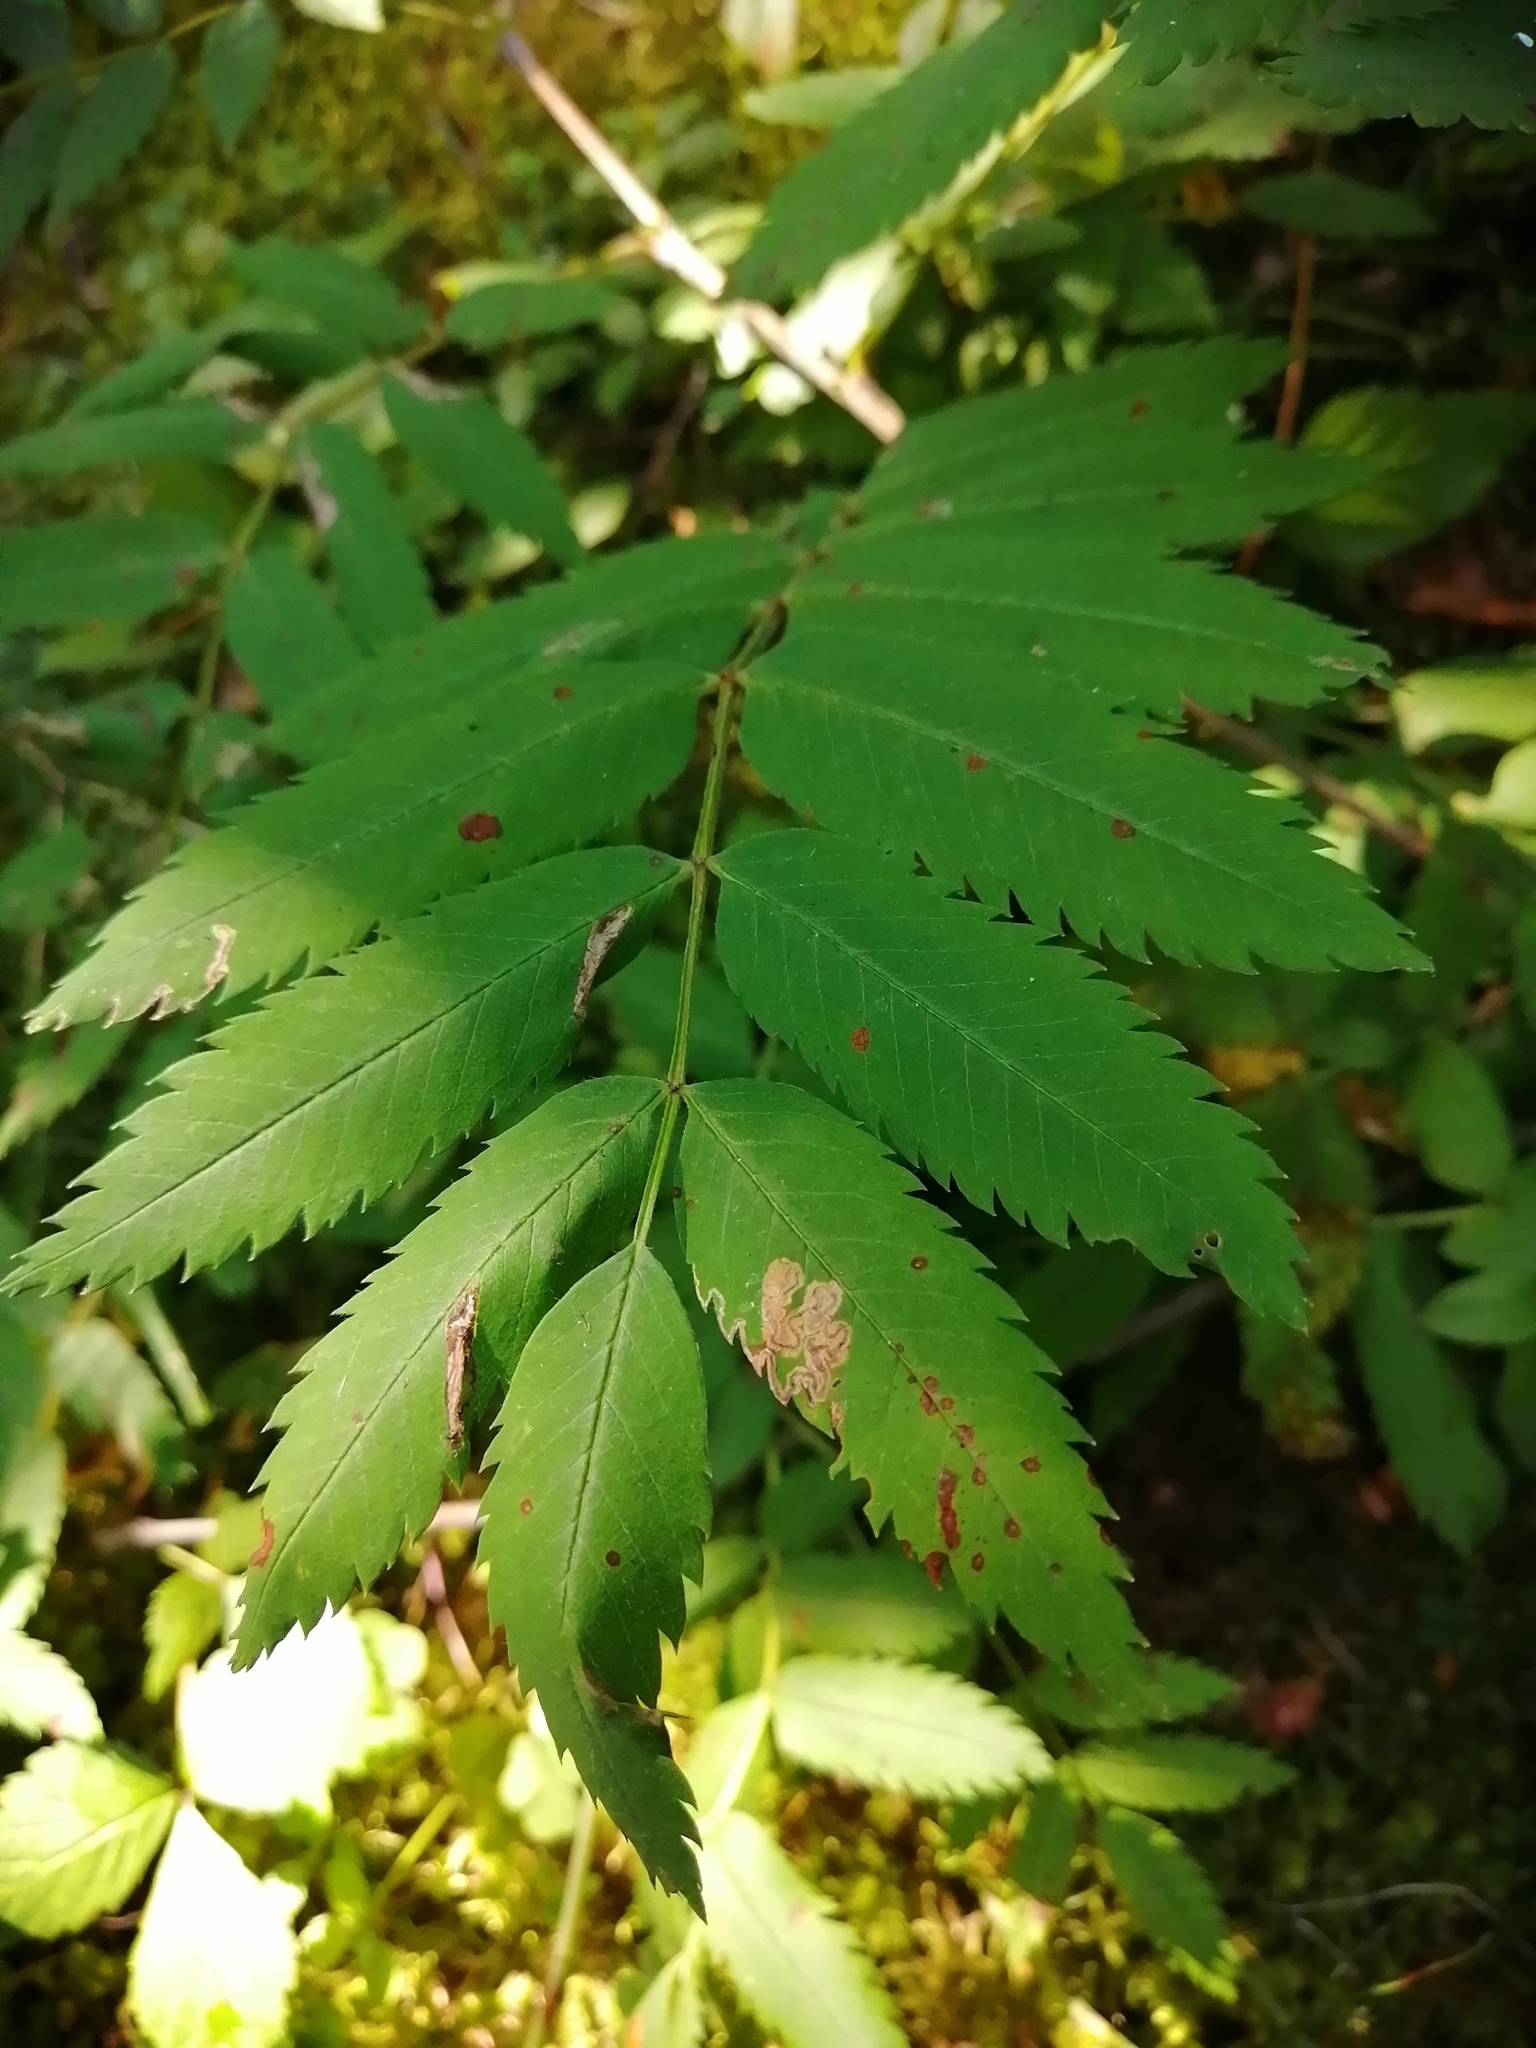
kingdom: Plantae
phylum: Tracheophyta
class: Magnoliopsida
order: Rosales
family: Rosaceae
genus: Sorbus
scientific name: Sorbus aucuparia
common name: Rowan
